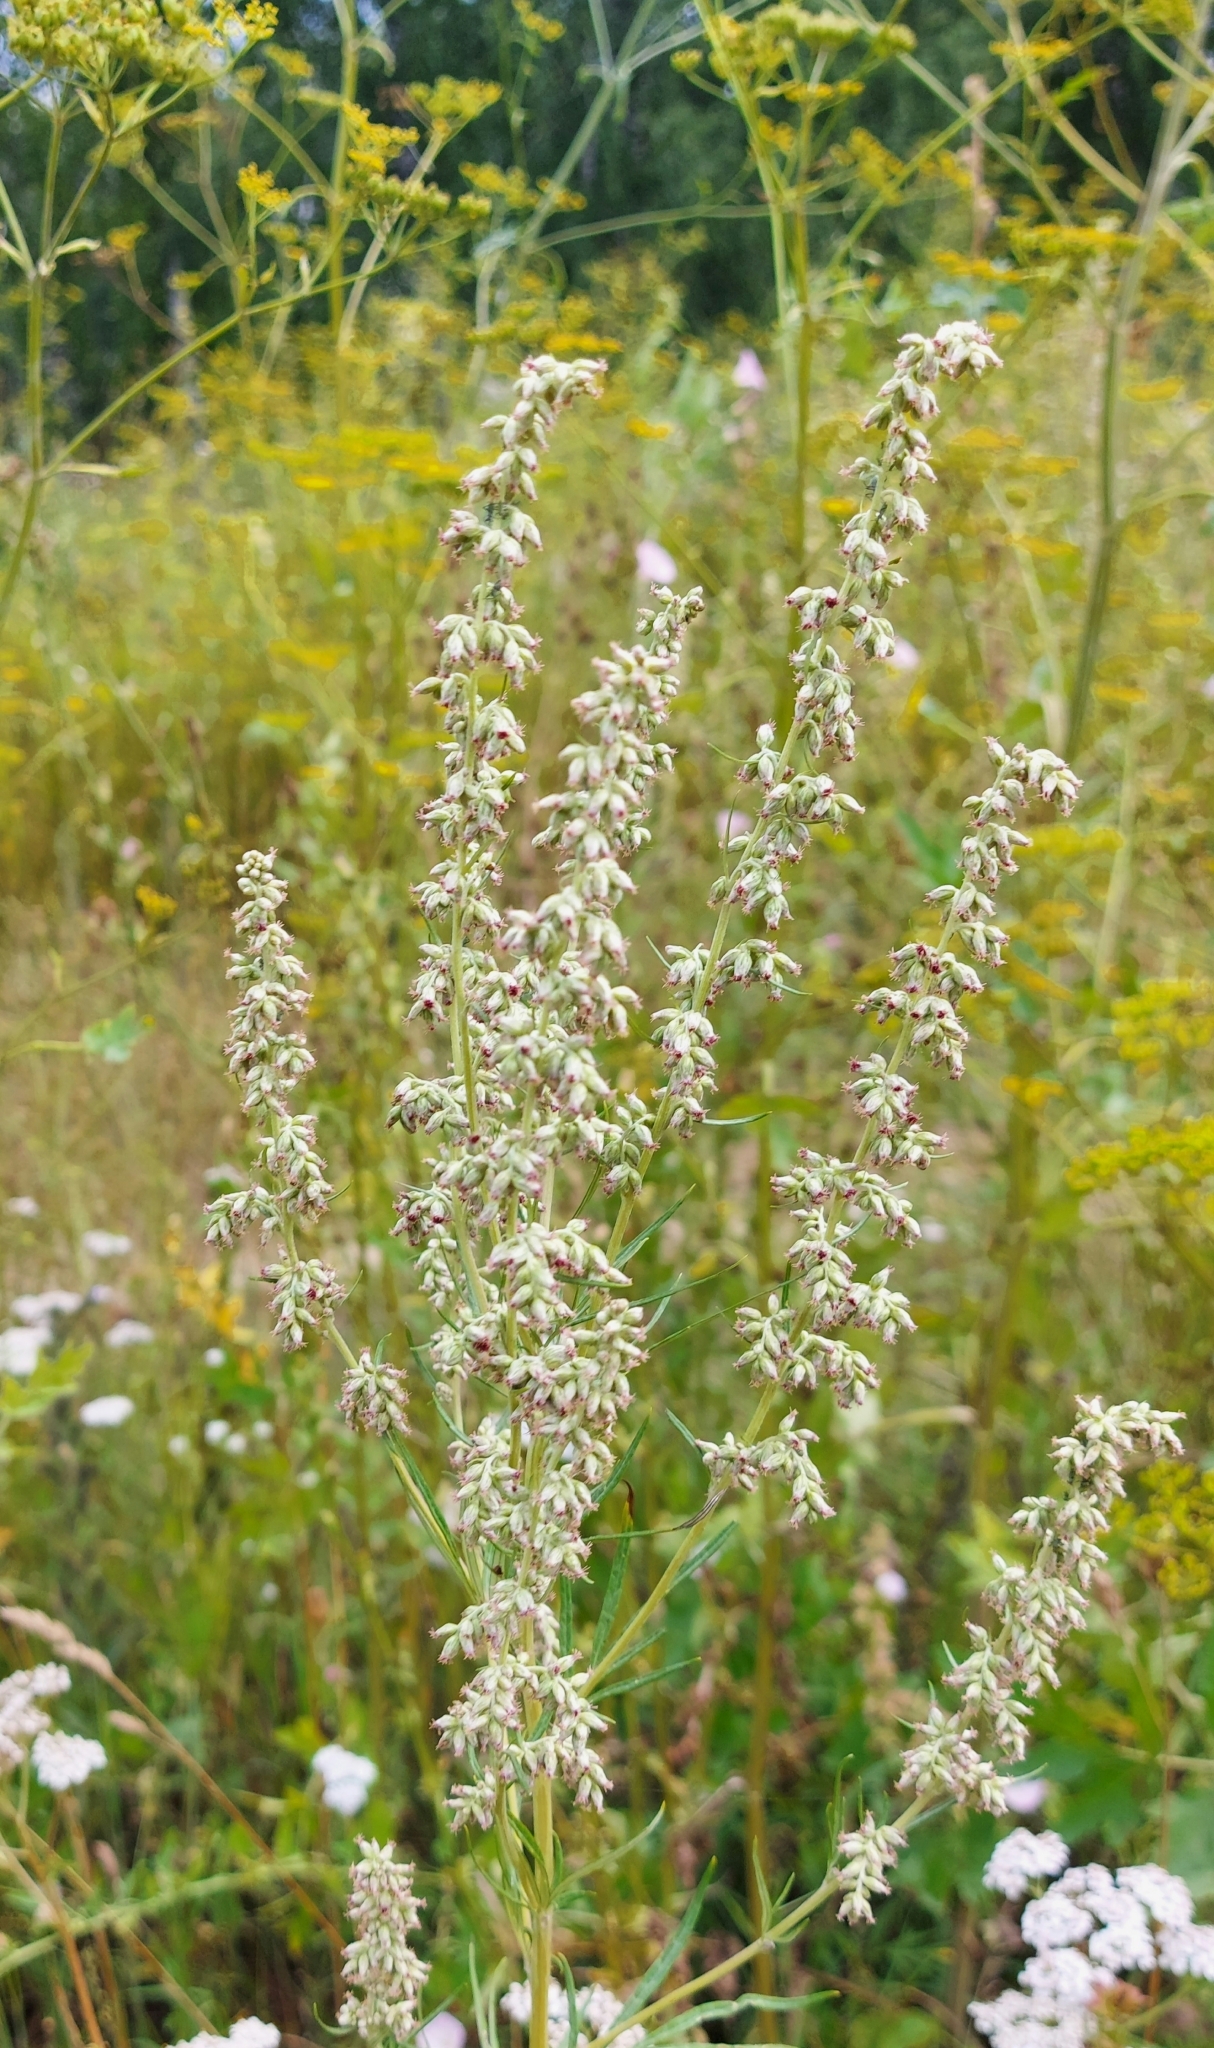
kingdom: Plantae
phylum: Tracheophyta
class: Magnoliopsida
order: Asterales
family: Asteraceae
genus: Artemisia
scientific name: Artemisia vulgaris
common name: Mugwort
